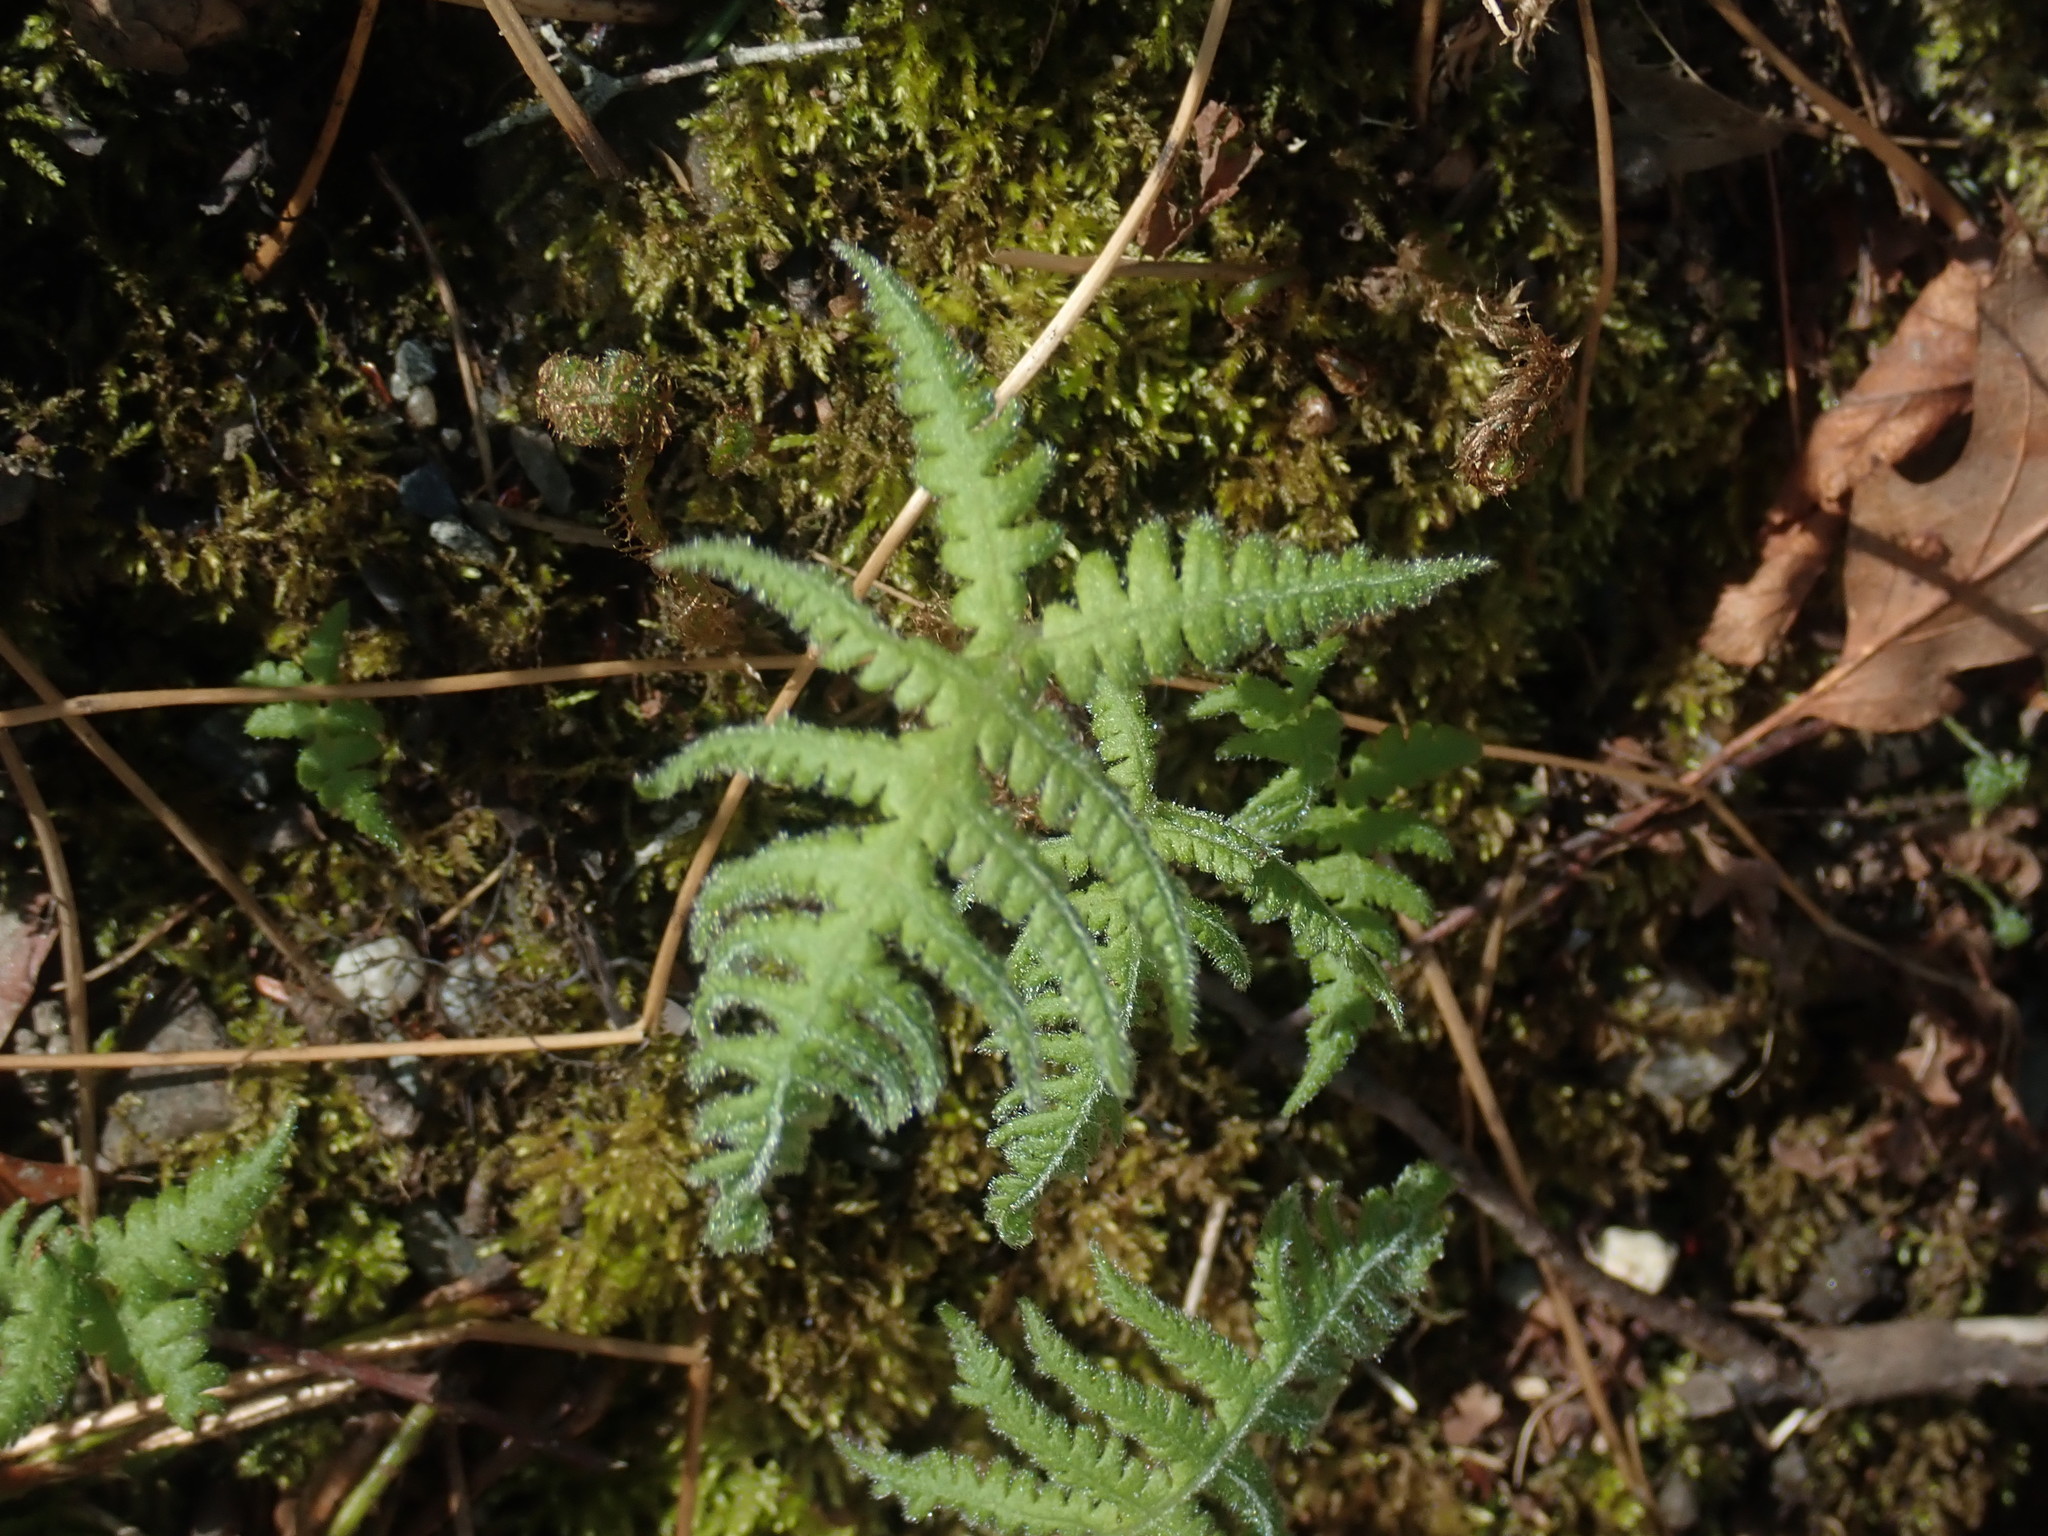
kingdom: Plantae
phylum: Tracheophyta
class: Polypodiopsida
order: Polypodiales
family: Thelypteridaceae
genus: Phegopteris
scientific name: Phegopteris connectilis
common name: Beech fern
